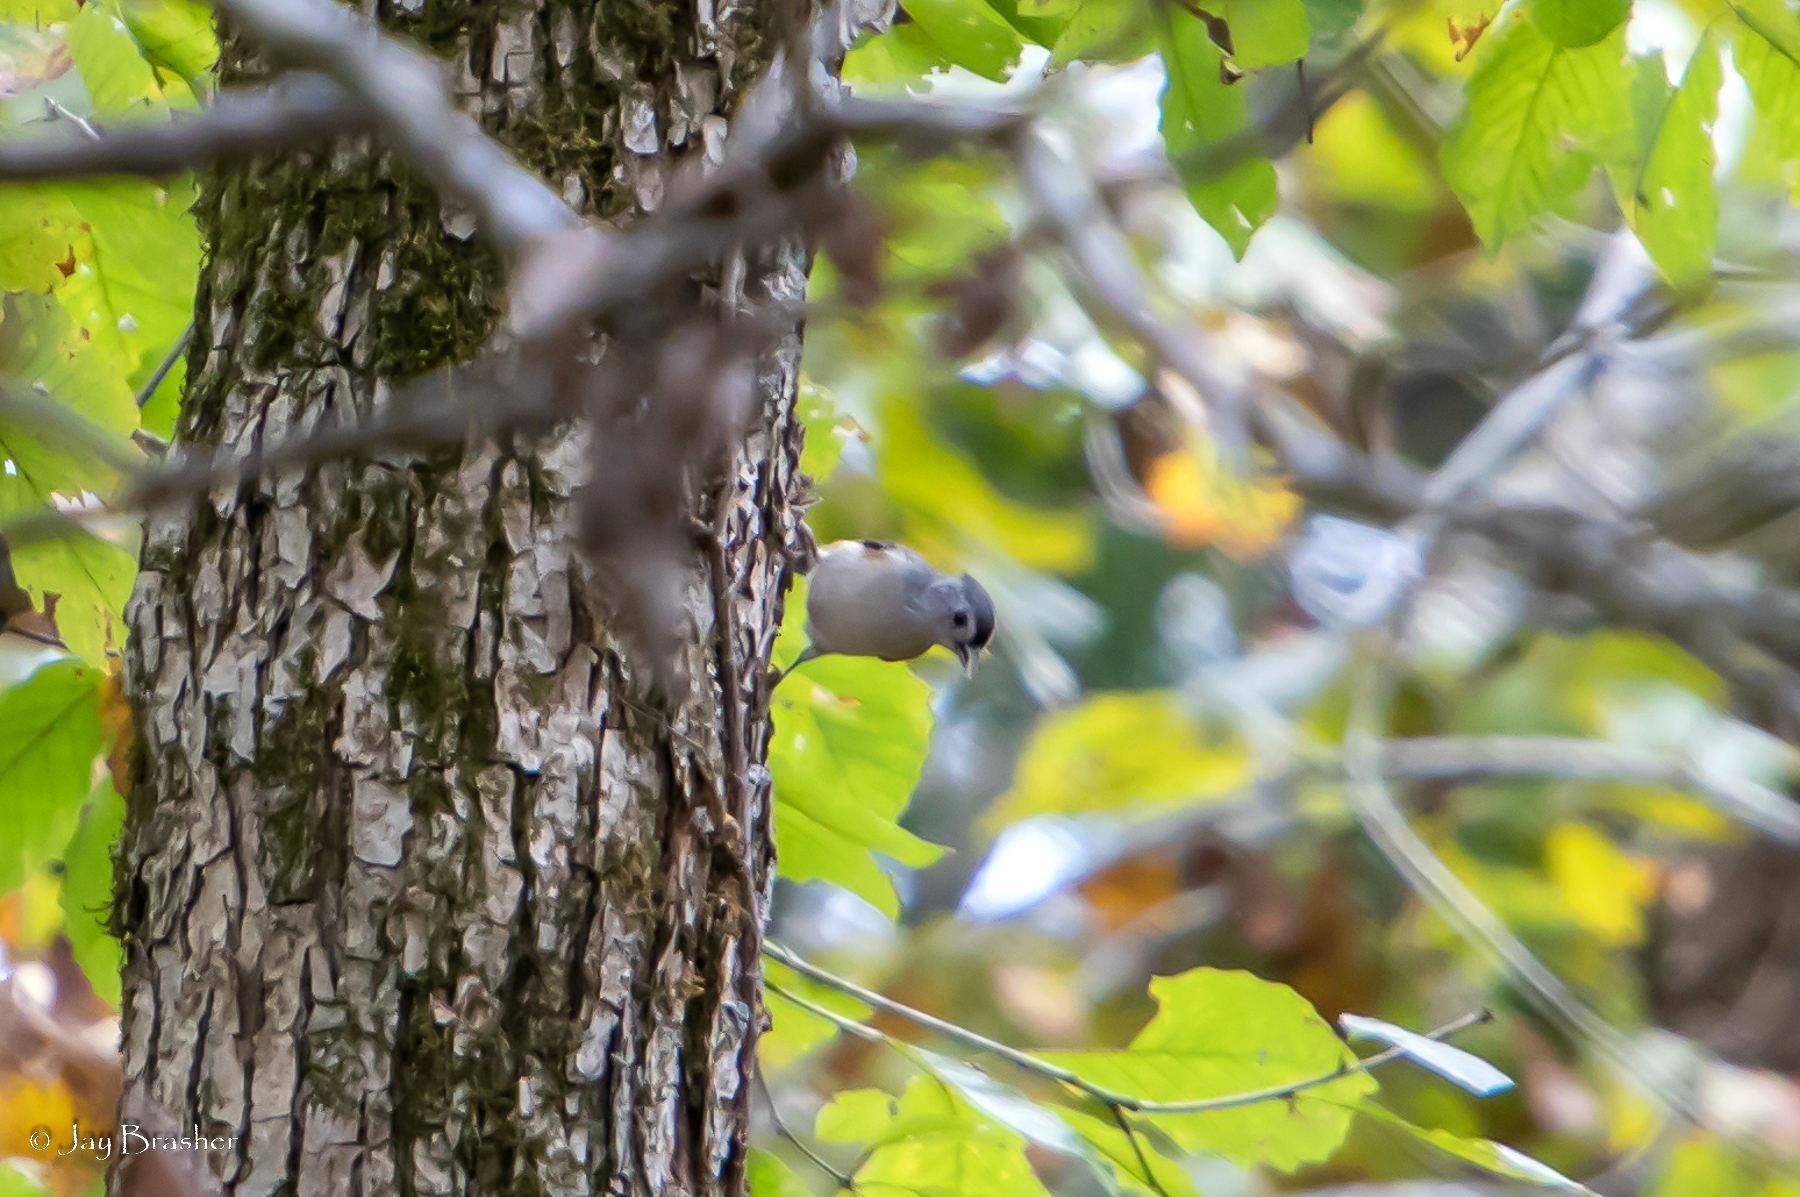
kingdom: Animalia
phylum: Chordata
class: Aves
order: Passeriformes
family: Paridae
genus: Baeolophus
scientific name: Baeolophus bicolor
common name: Tufted titmouse
